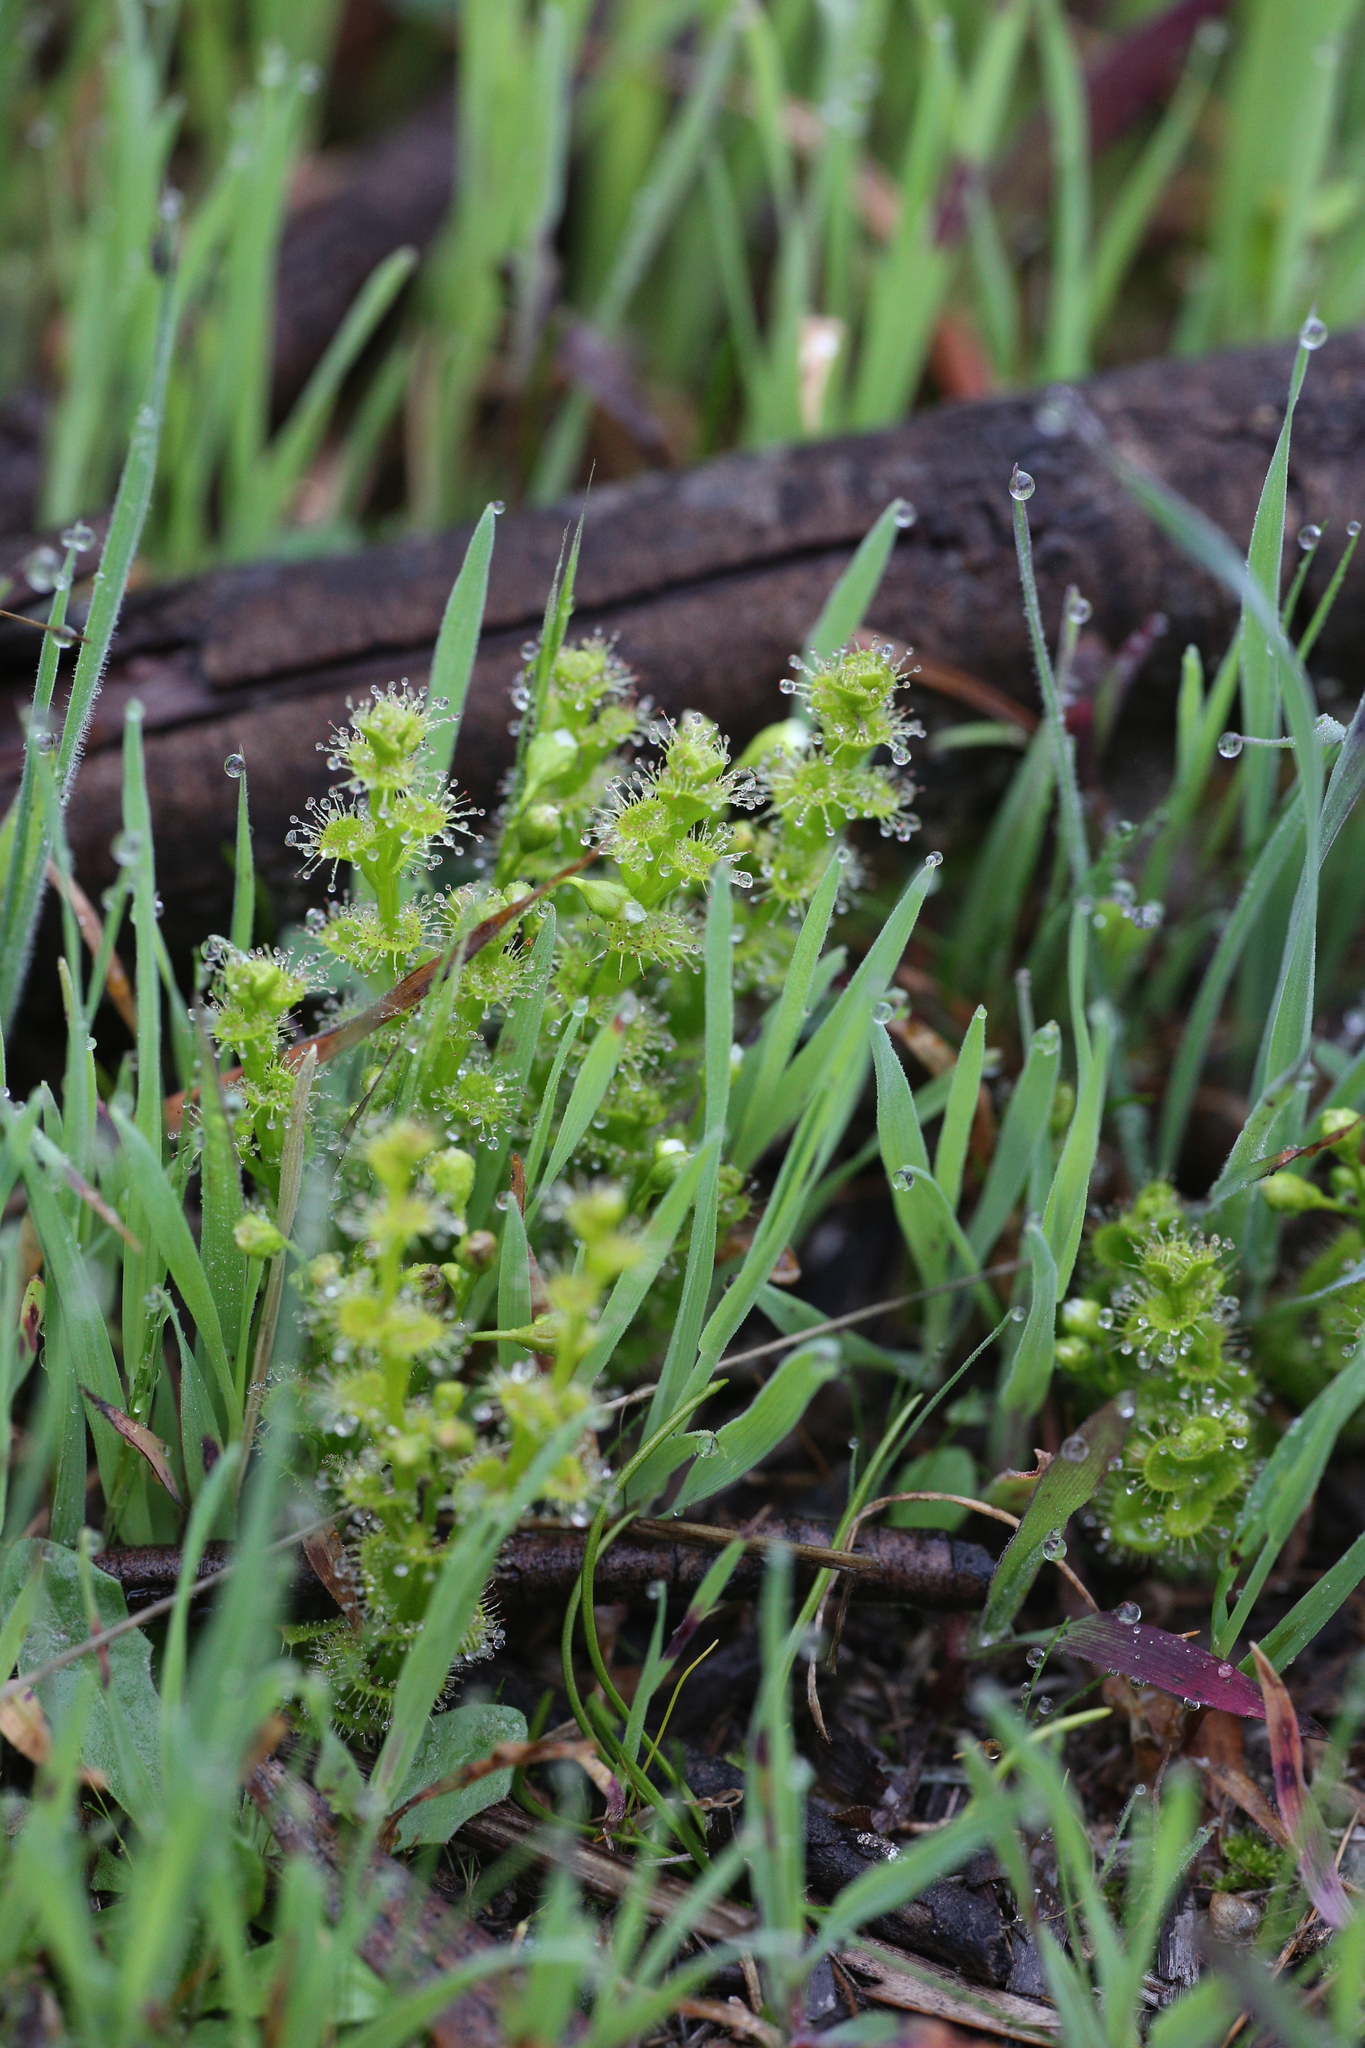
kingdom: Plantae
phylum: Tracheophyta
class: Magnoliopsida
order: Caryophyllales
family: Droseraceae
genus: Drosera
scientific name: Drosera ramellosa
